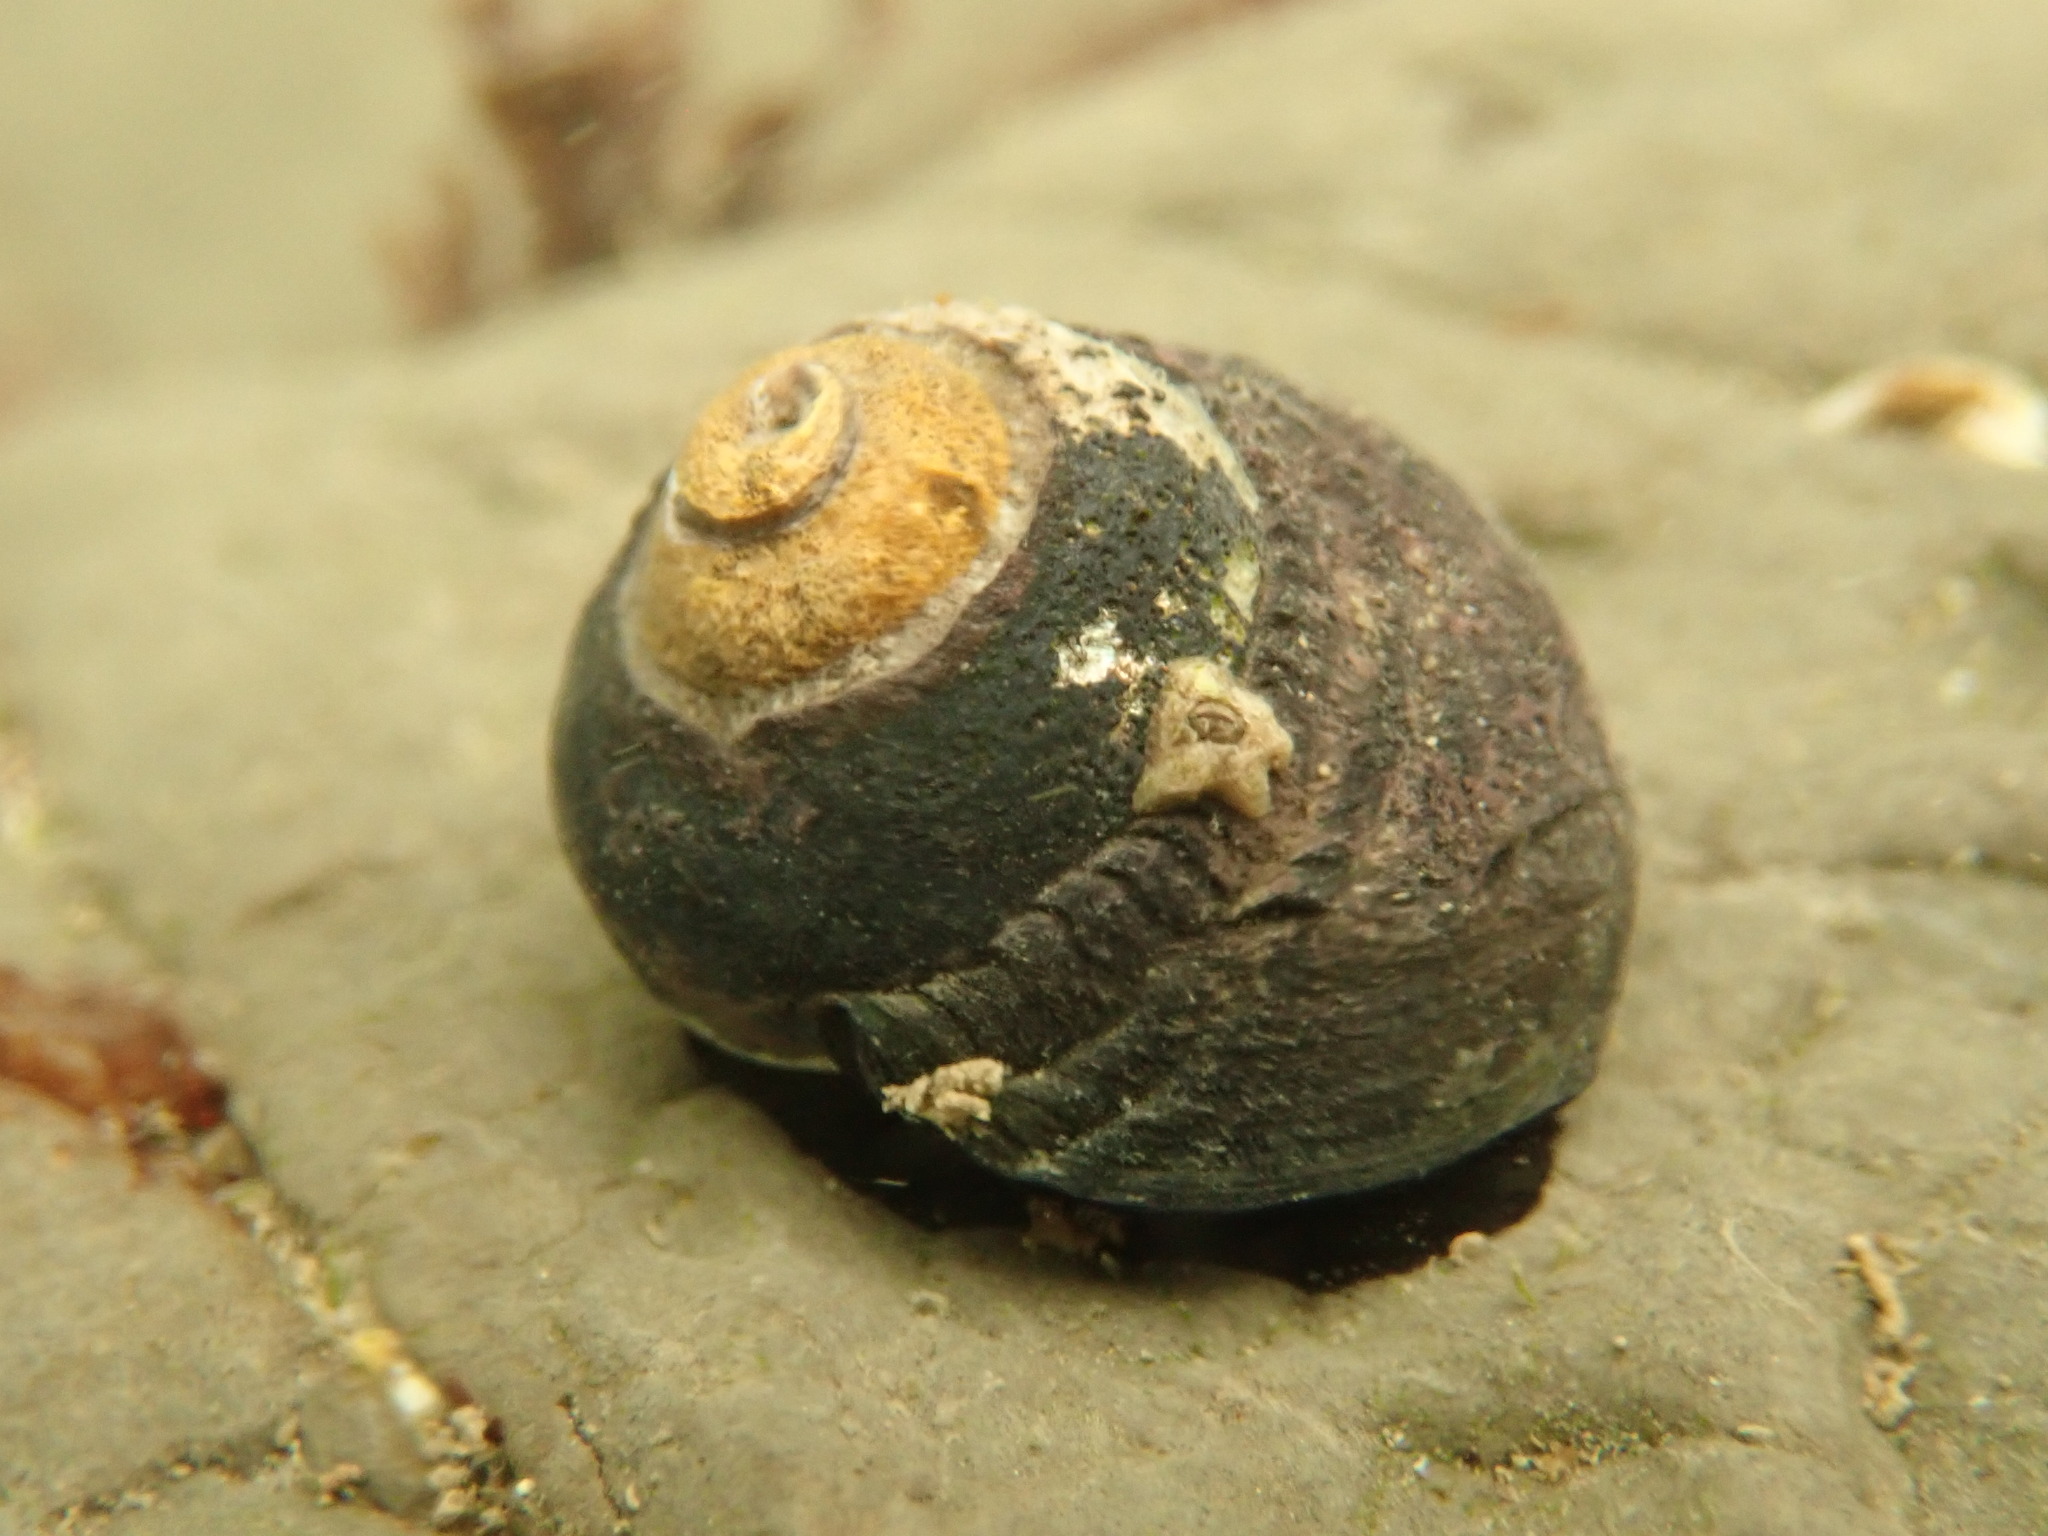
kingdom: Animalia
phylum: Mollusca
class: Gastropoda
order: Trochida
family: Tegulidae
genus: Tegula
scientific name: Tegula funebralis
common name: Black tegula
